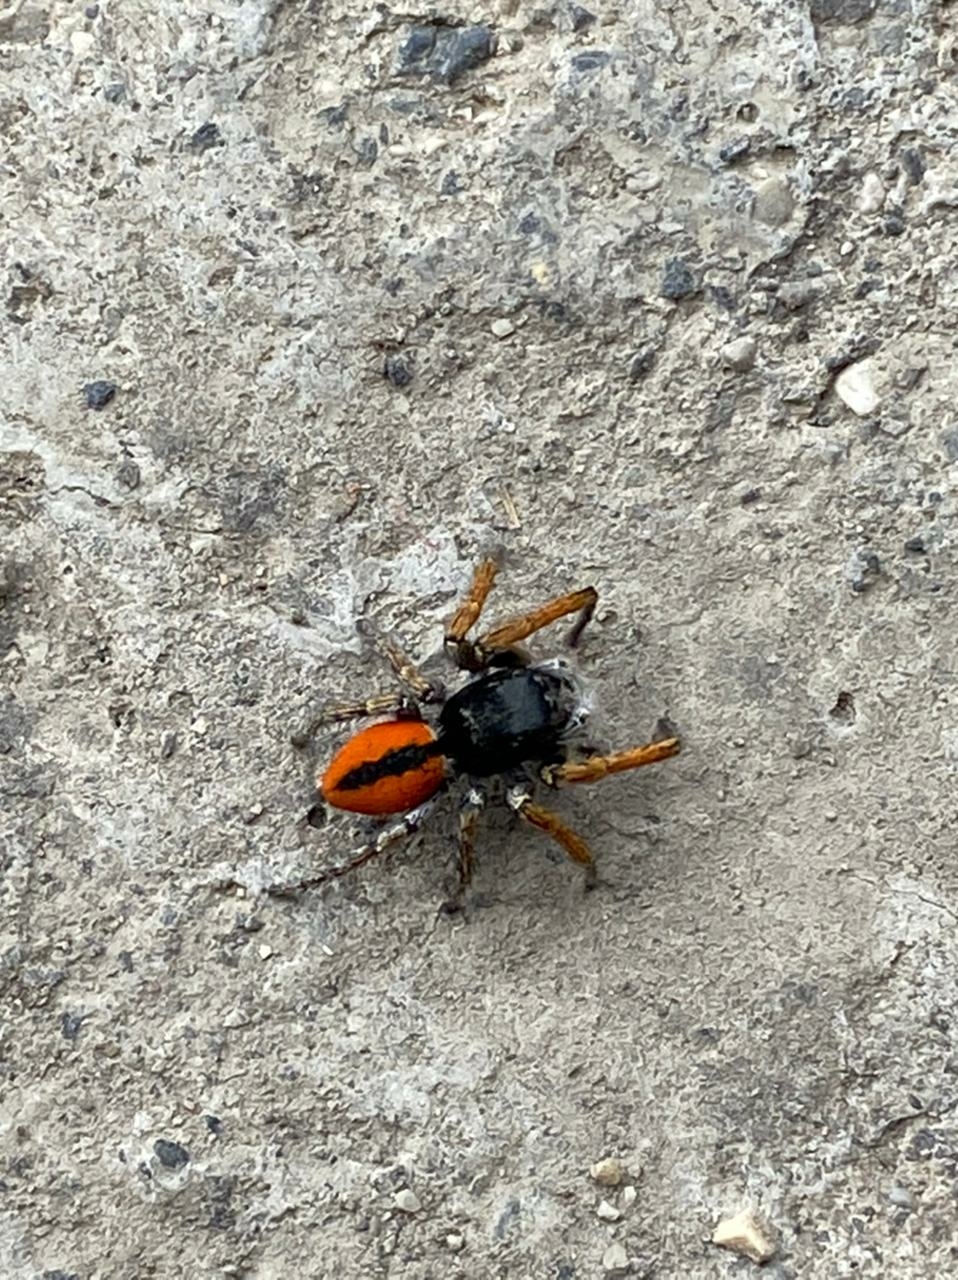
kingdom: Animalia
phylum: Arthropoda
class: Arachnida
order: Araneae
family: Salticidae
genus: Philaeus
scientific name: Philaeus chrysops
